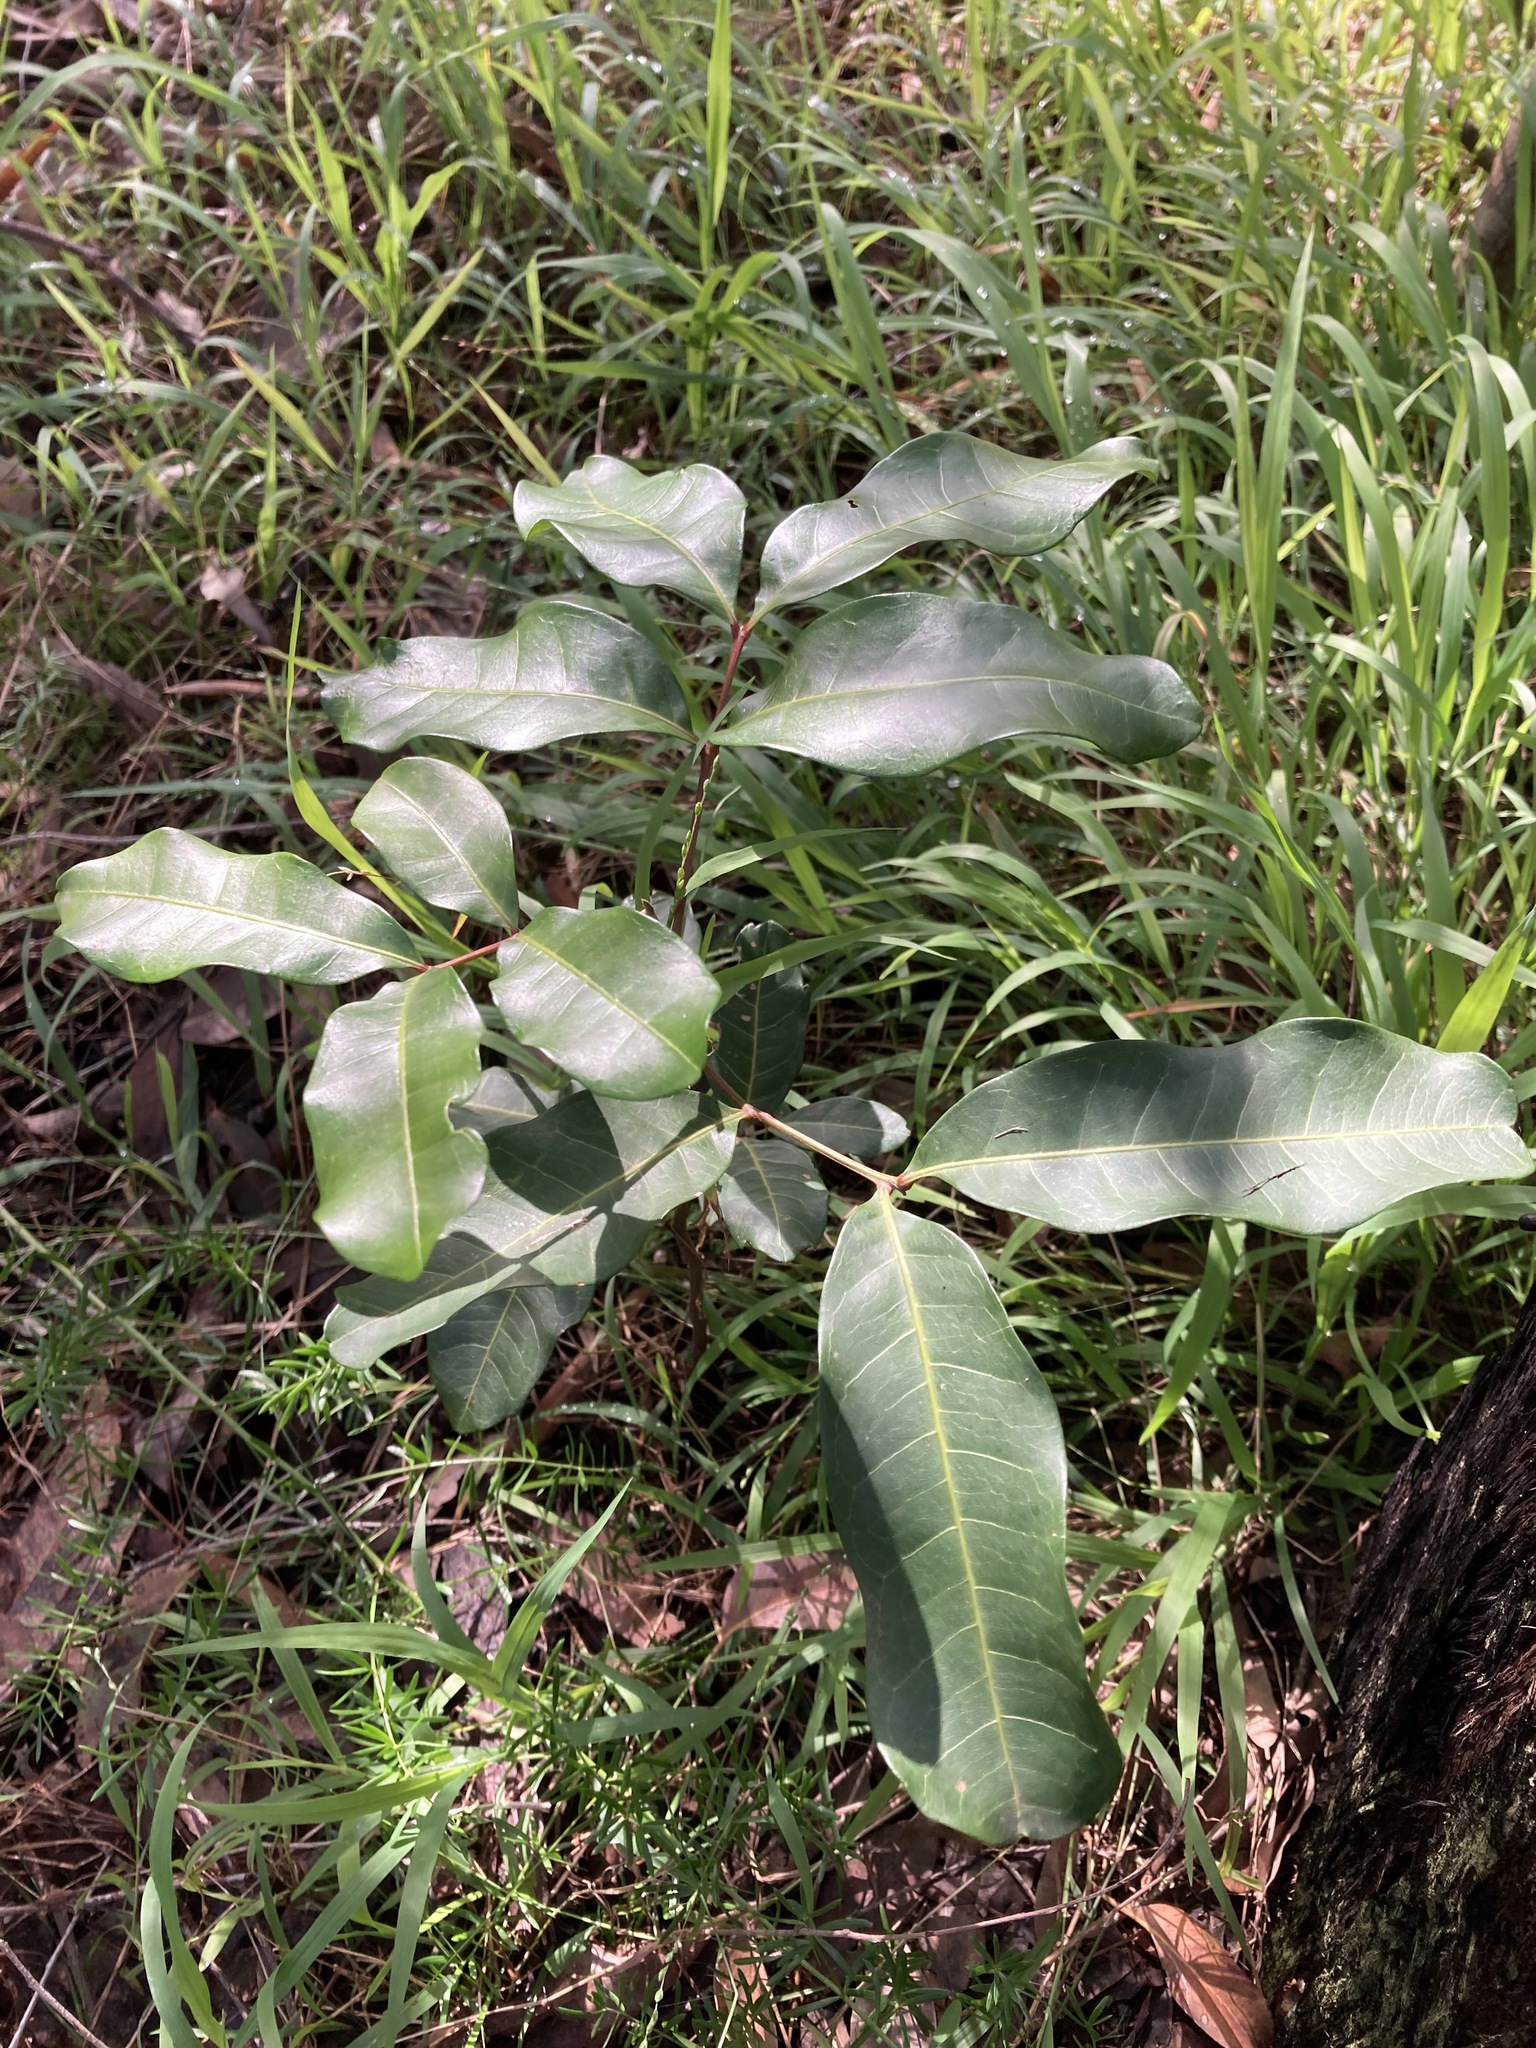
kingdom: Plantae
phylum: Tracheophyta
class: Magnoliopsida
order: Sapindales
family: Sapindaceae
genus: Cupaniopsis
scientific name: Cupaniopsis anacardioides
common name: Carrotwood
